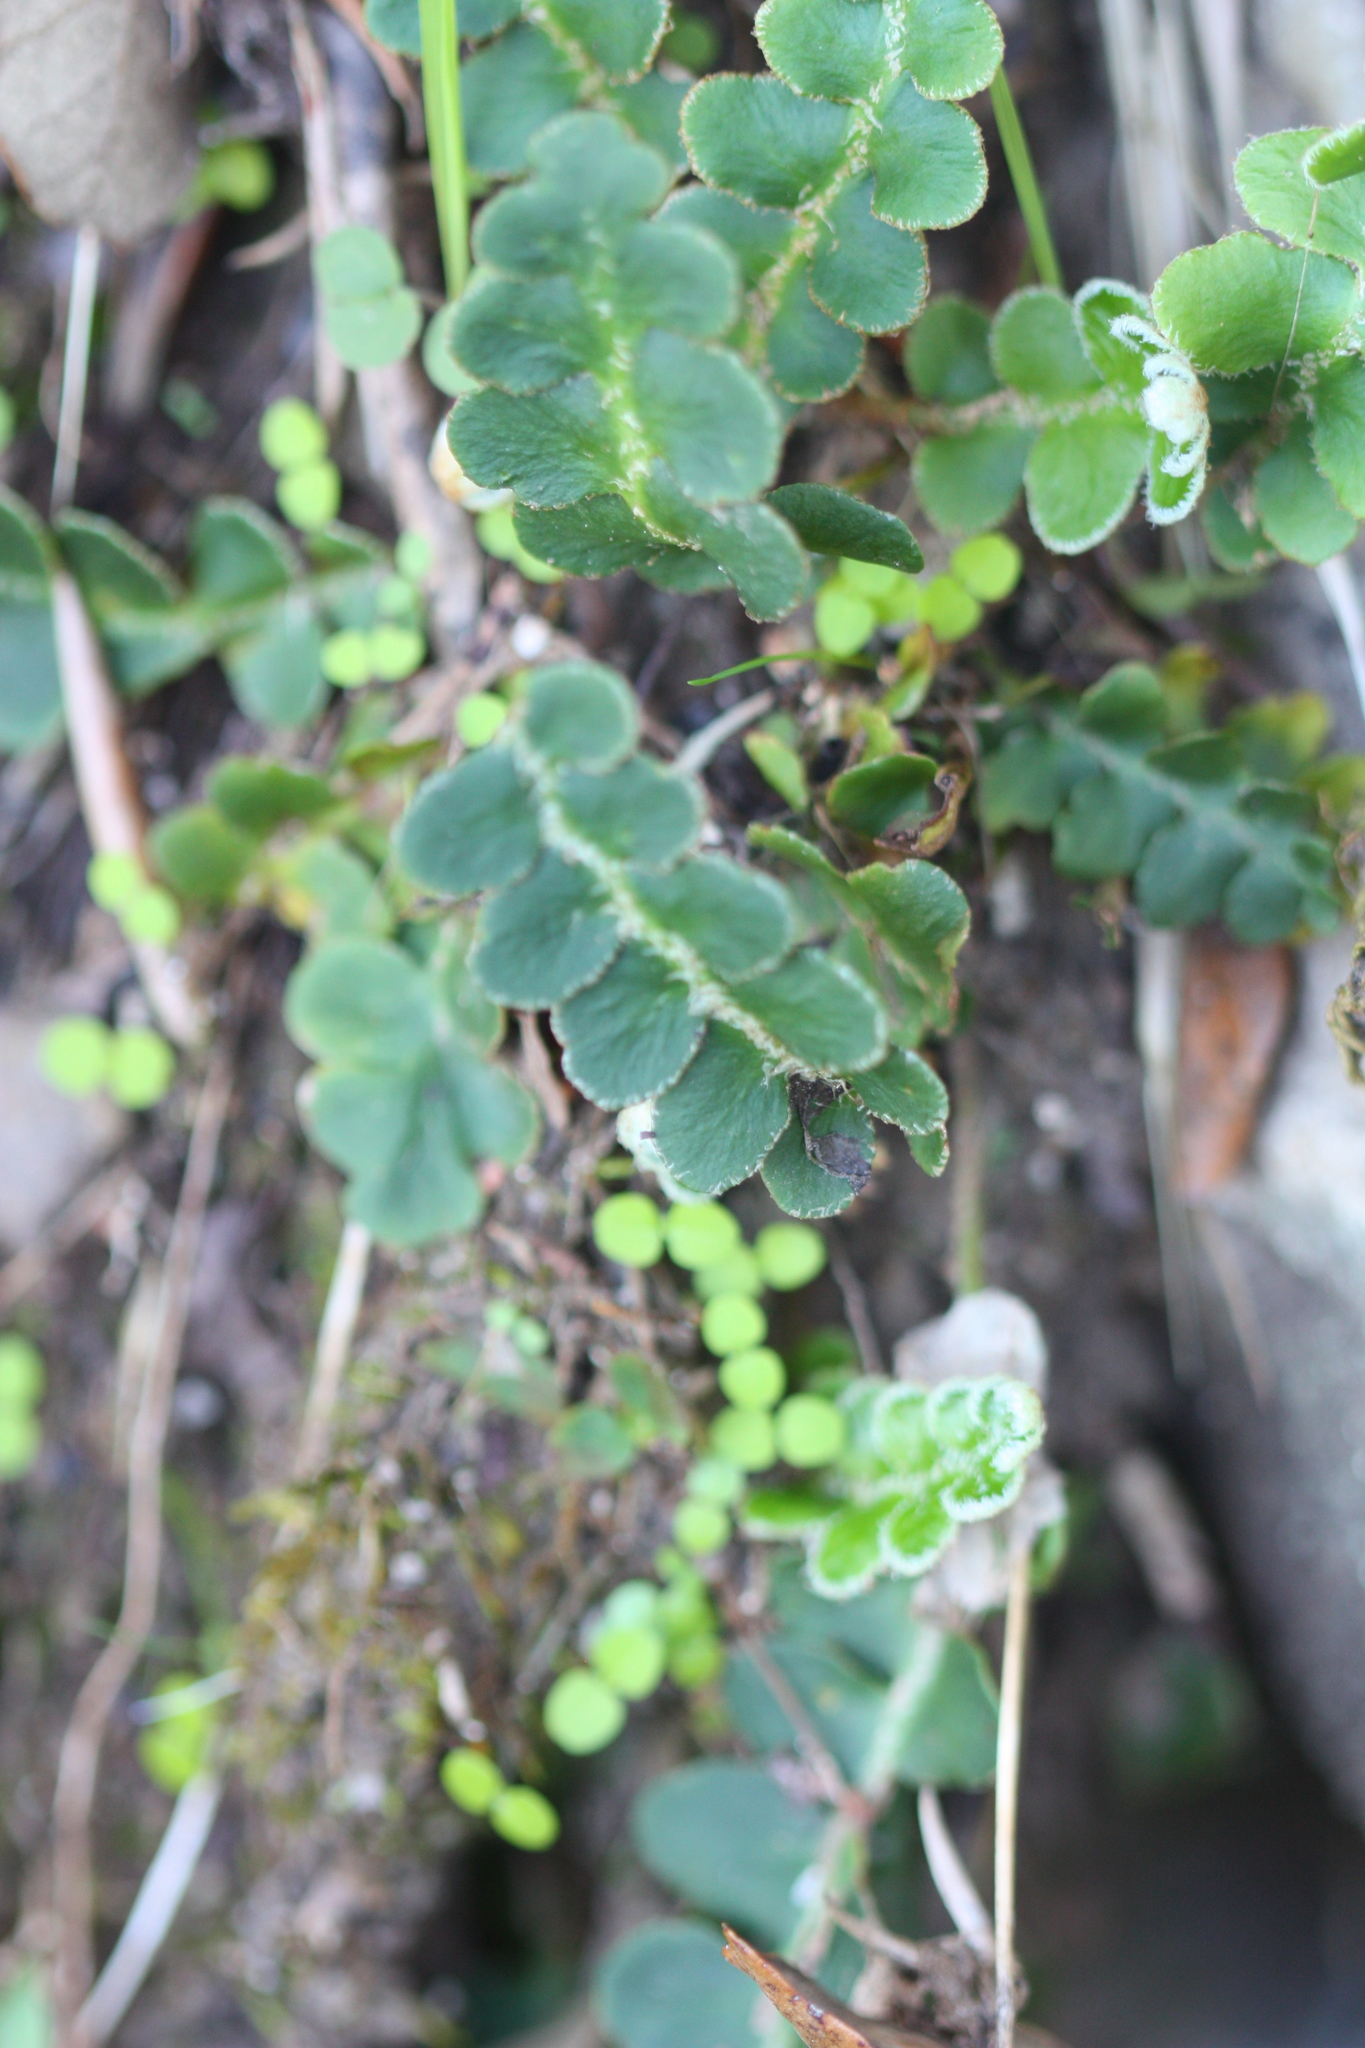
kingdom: Plantae
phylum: Tracheophyta
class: Polypodiopsida
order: Polypodiales
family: Aspleniaceae
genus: Asplenium
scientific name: Asplenium ceterach
